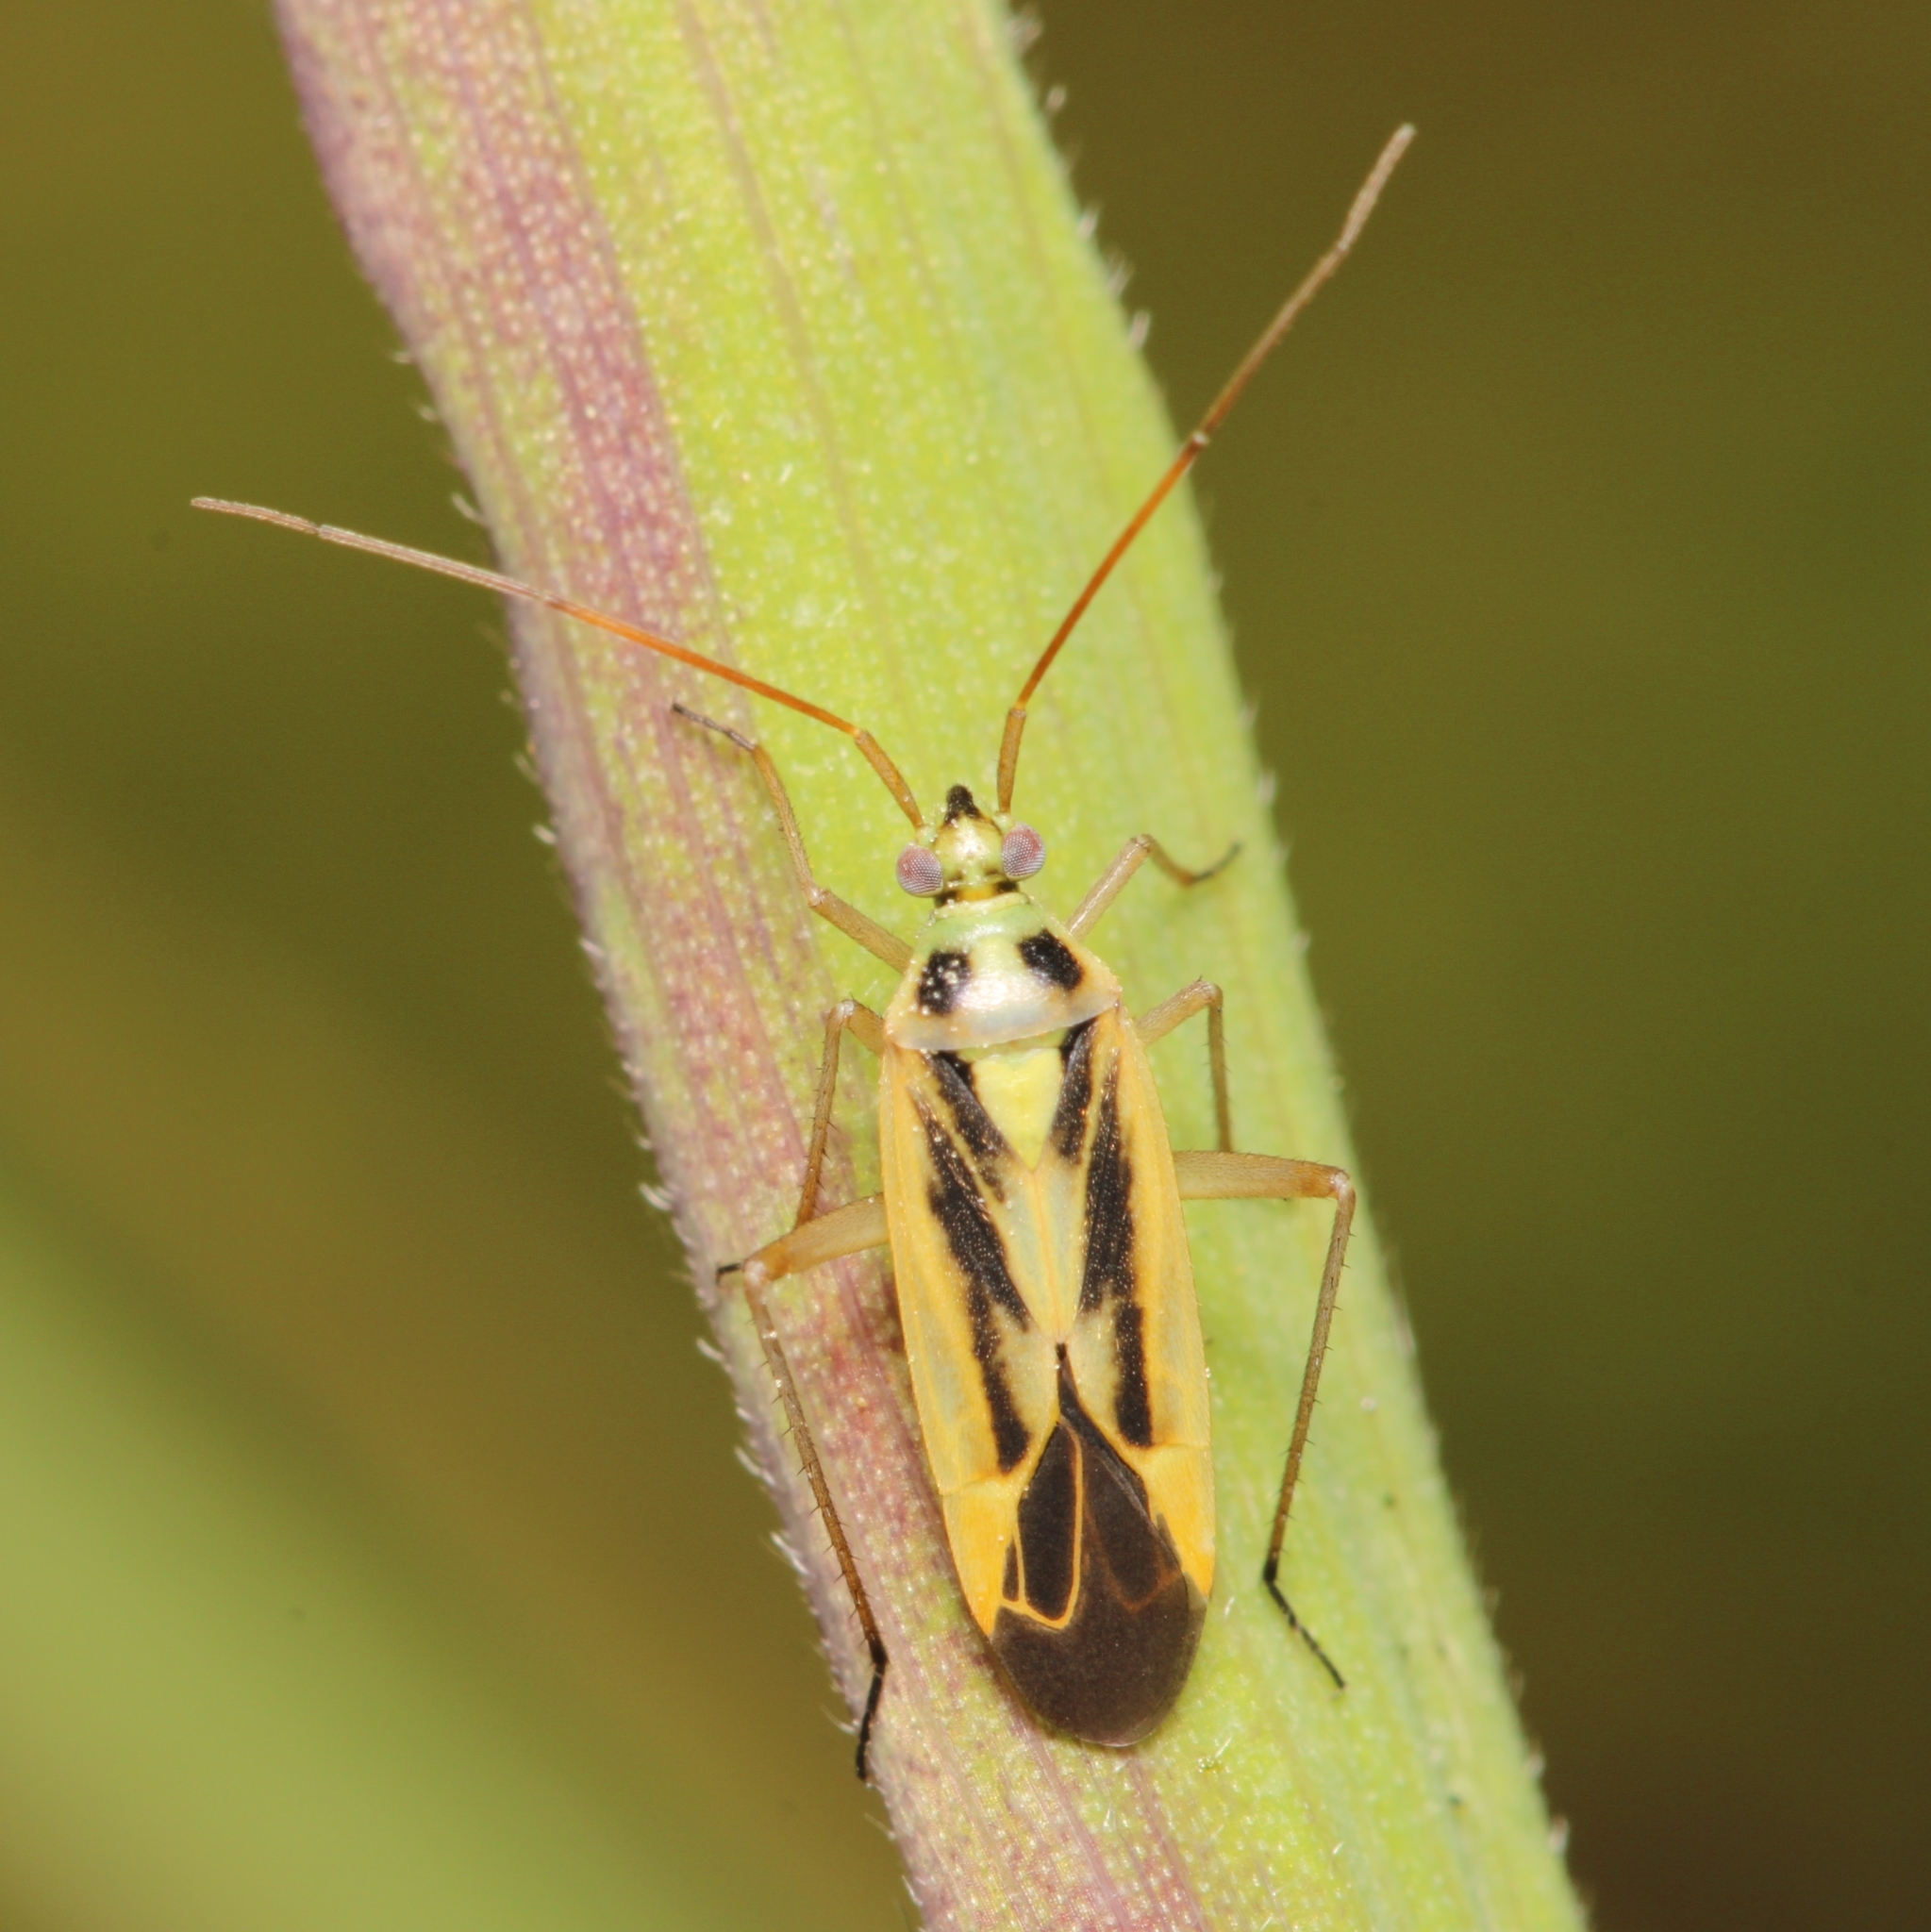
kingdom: Animalia
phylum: Arthropoda
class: Insecta
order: Hemiptera
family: Miridae
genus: Stenotus
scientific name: Stenotus binotatus
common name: Plant bug
